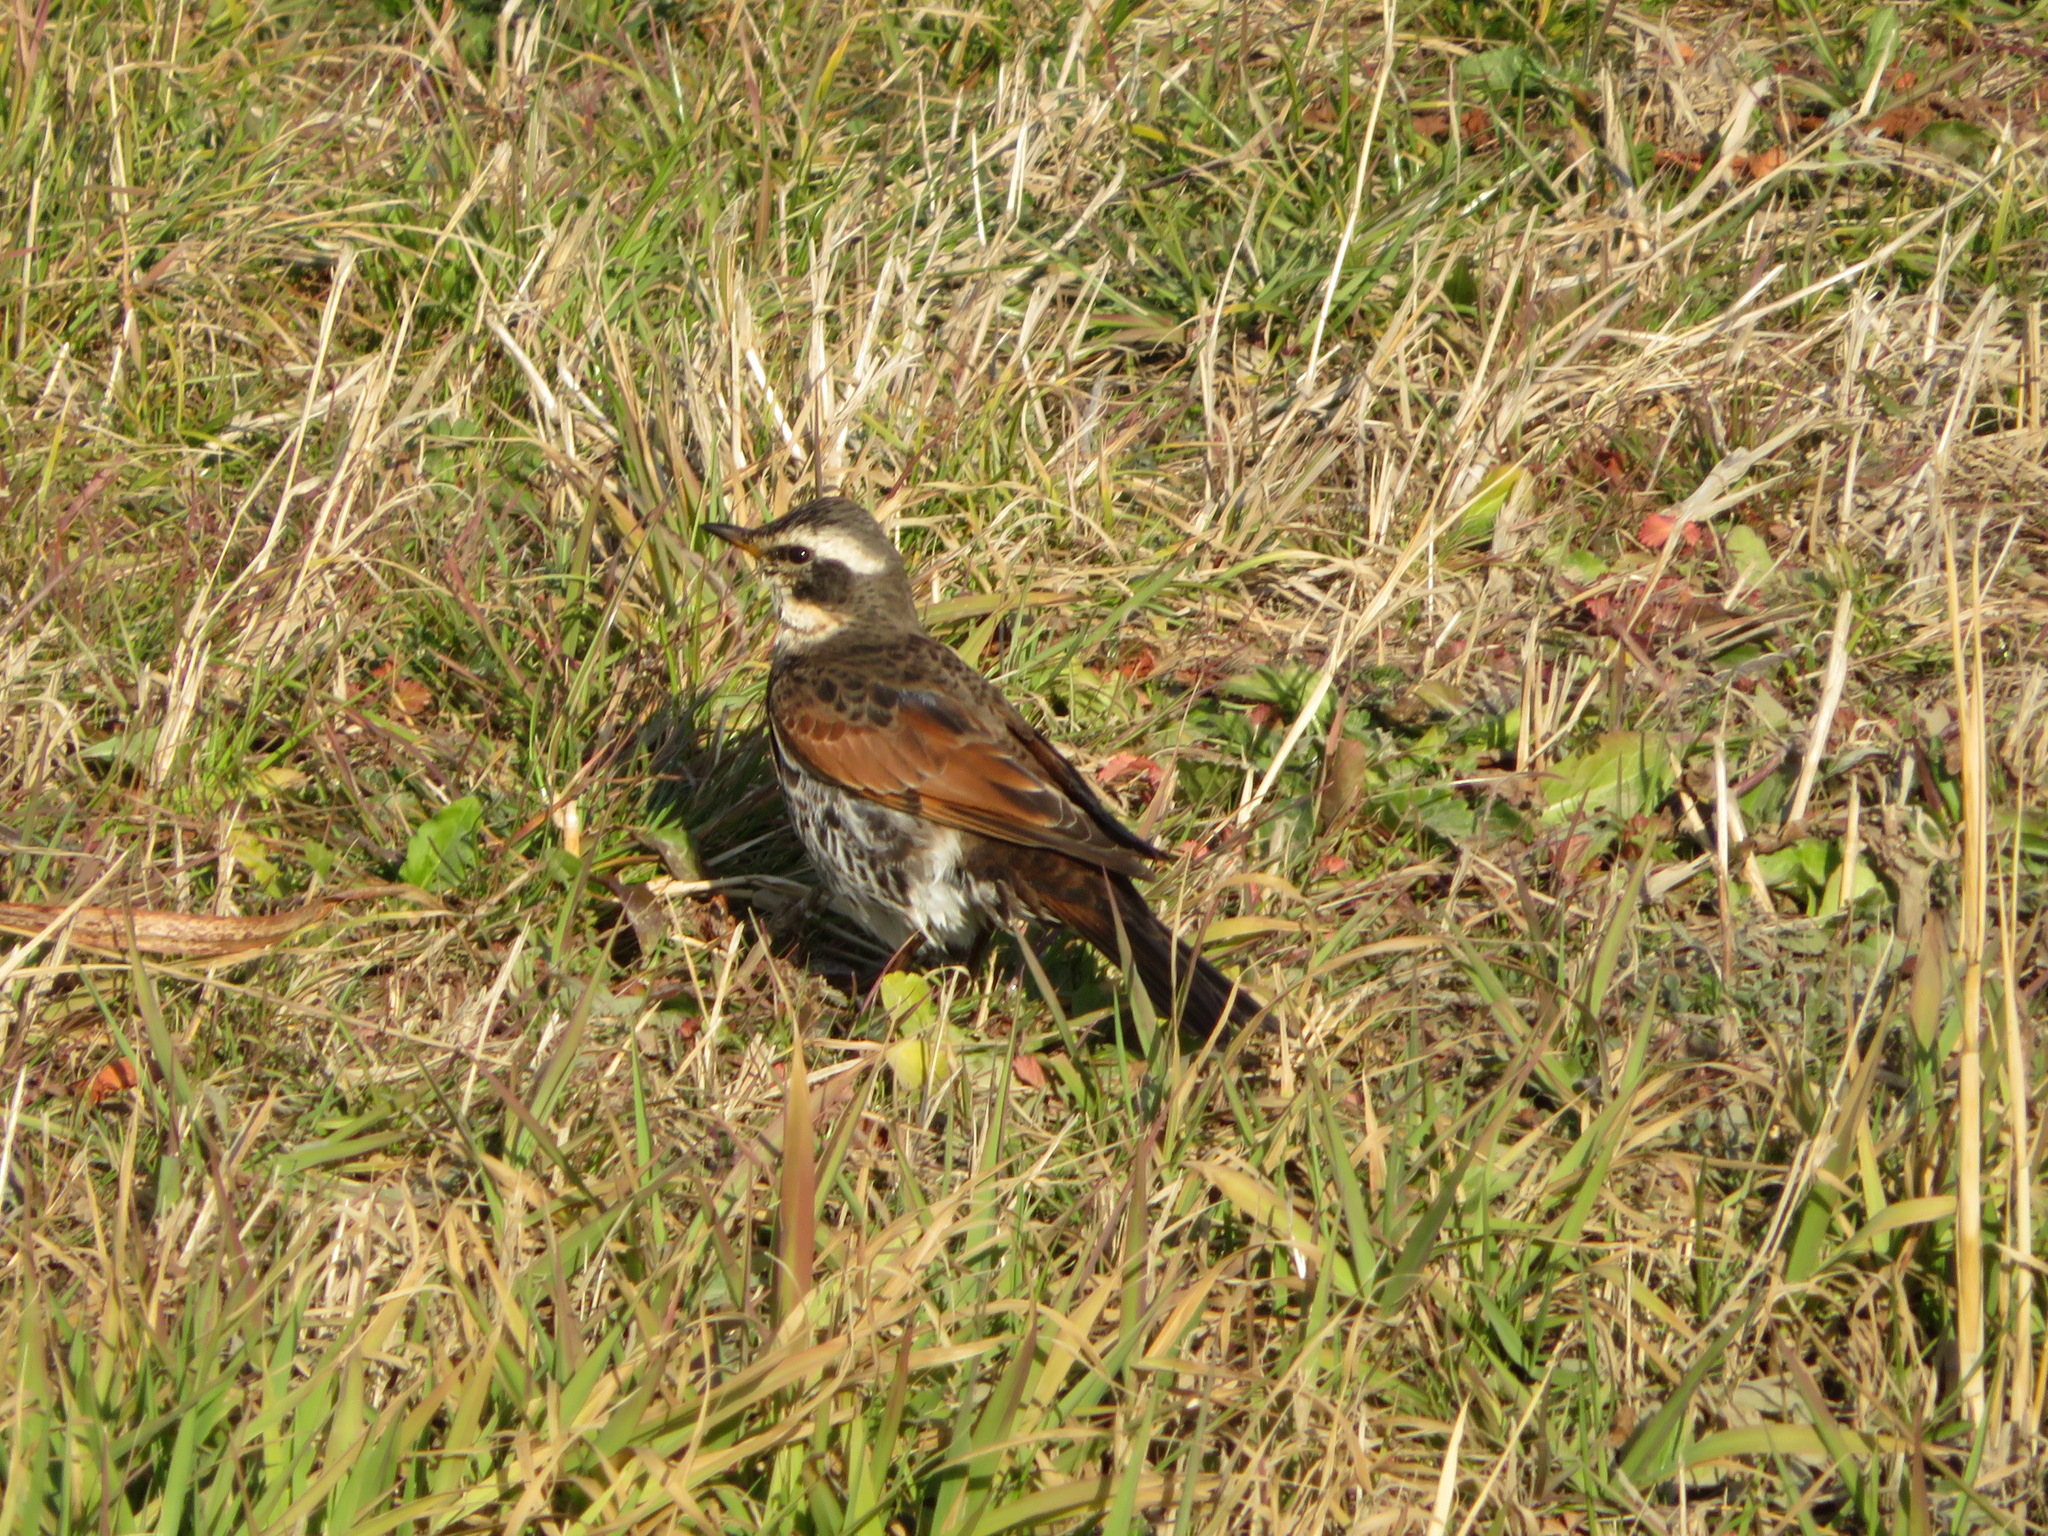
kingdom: Animalia
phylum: Chordata
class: Aves
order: Passeriformes
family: Turdidae
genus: Turdus
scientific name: Turdus eunomus
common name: Dusky thrush
